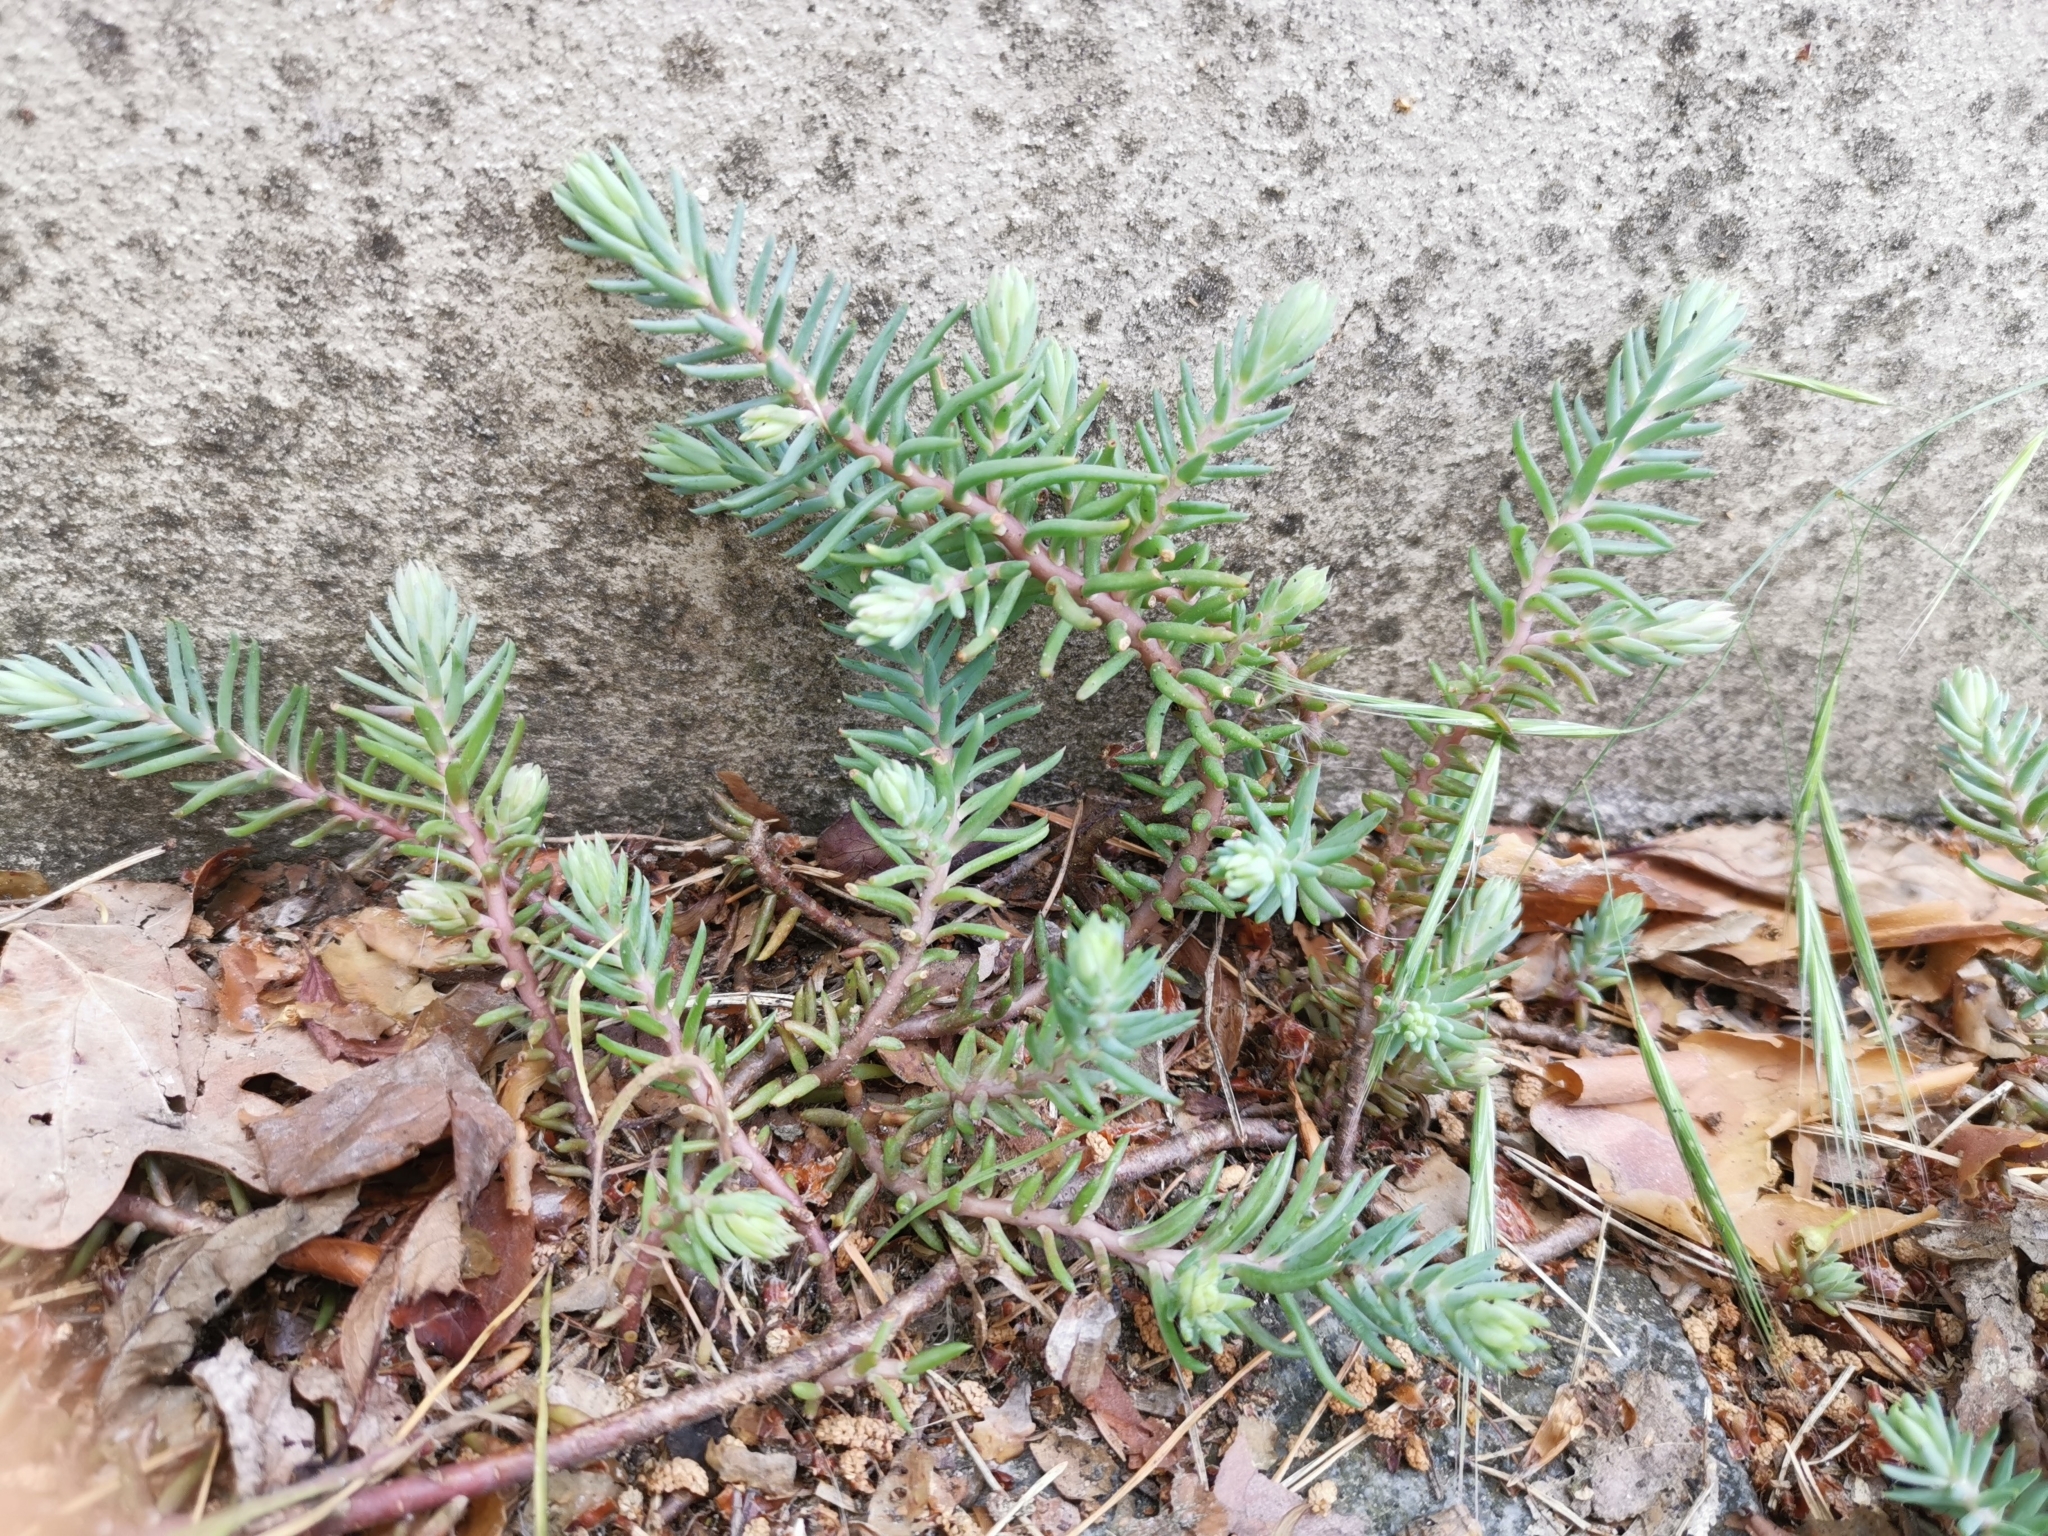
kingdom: Plantae
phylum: Tracheophyta
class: Magnoliopsida
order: Saxifragales
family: Crassulaceae
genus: Petrosedum
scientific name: Petrosedum rupestre
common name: Jenny's stonecrop
